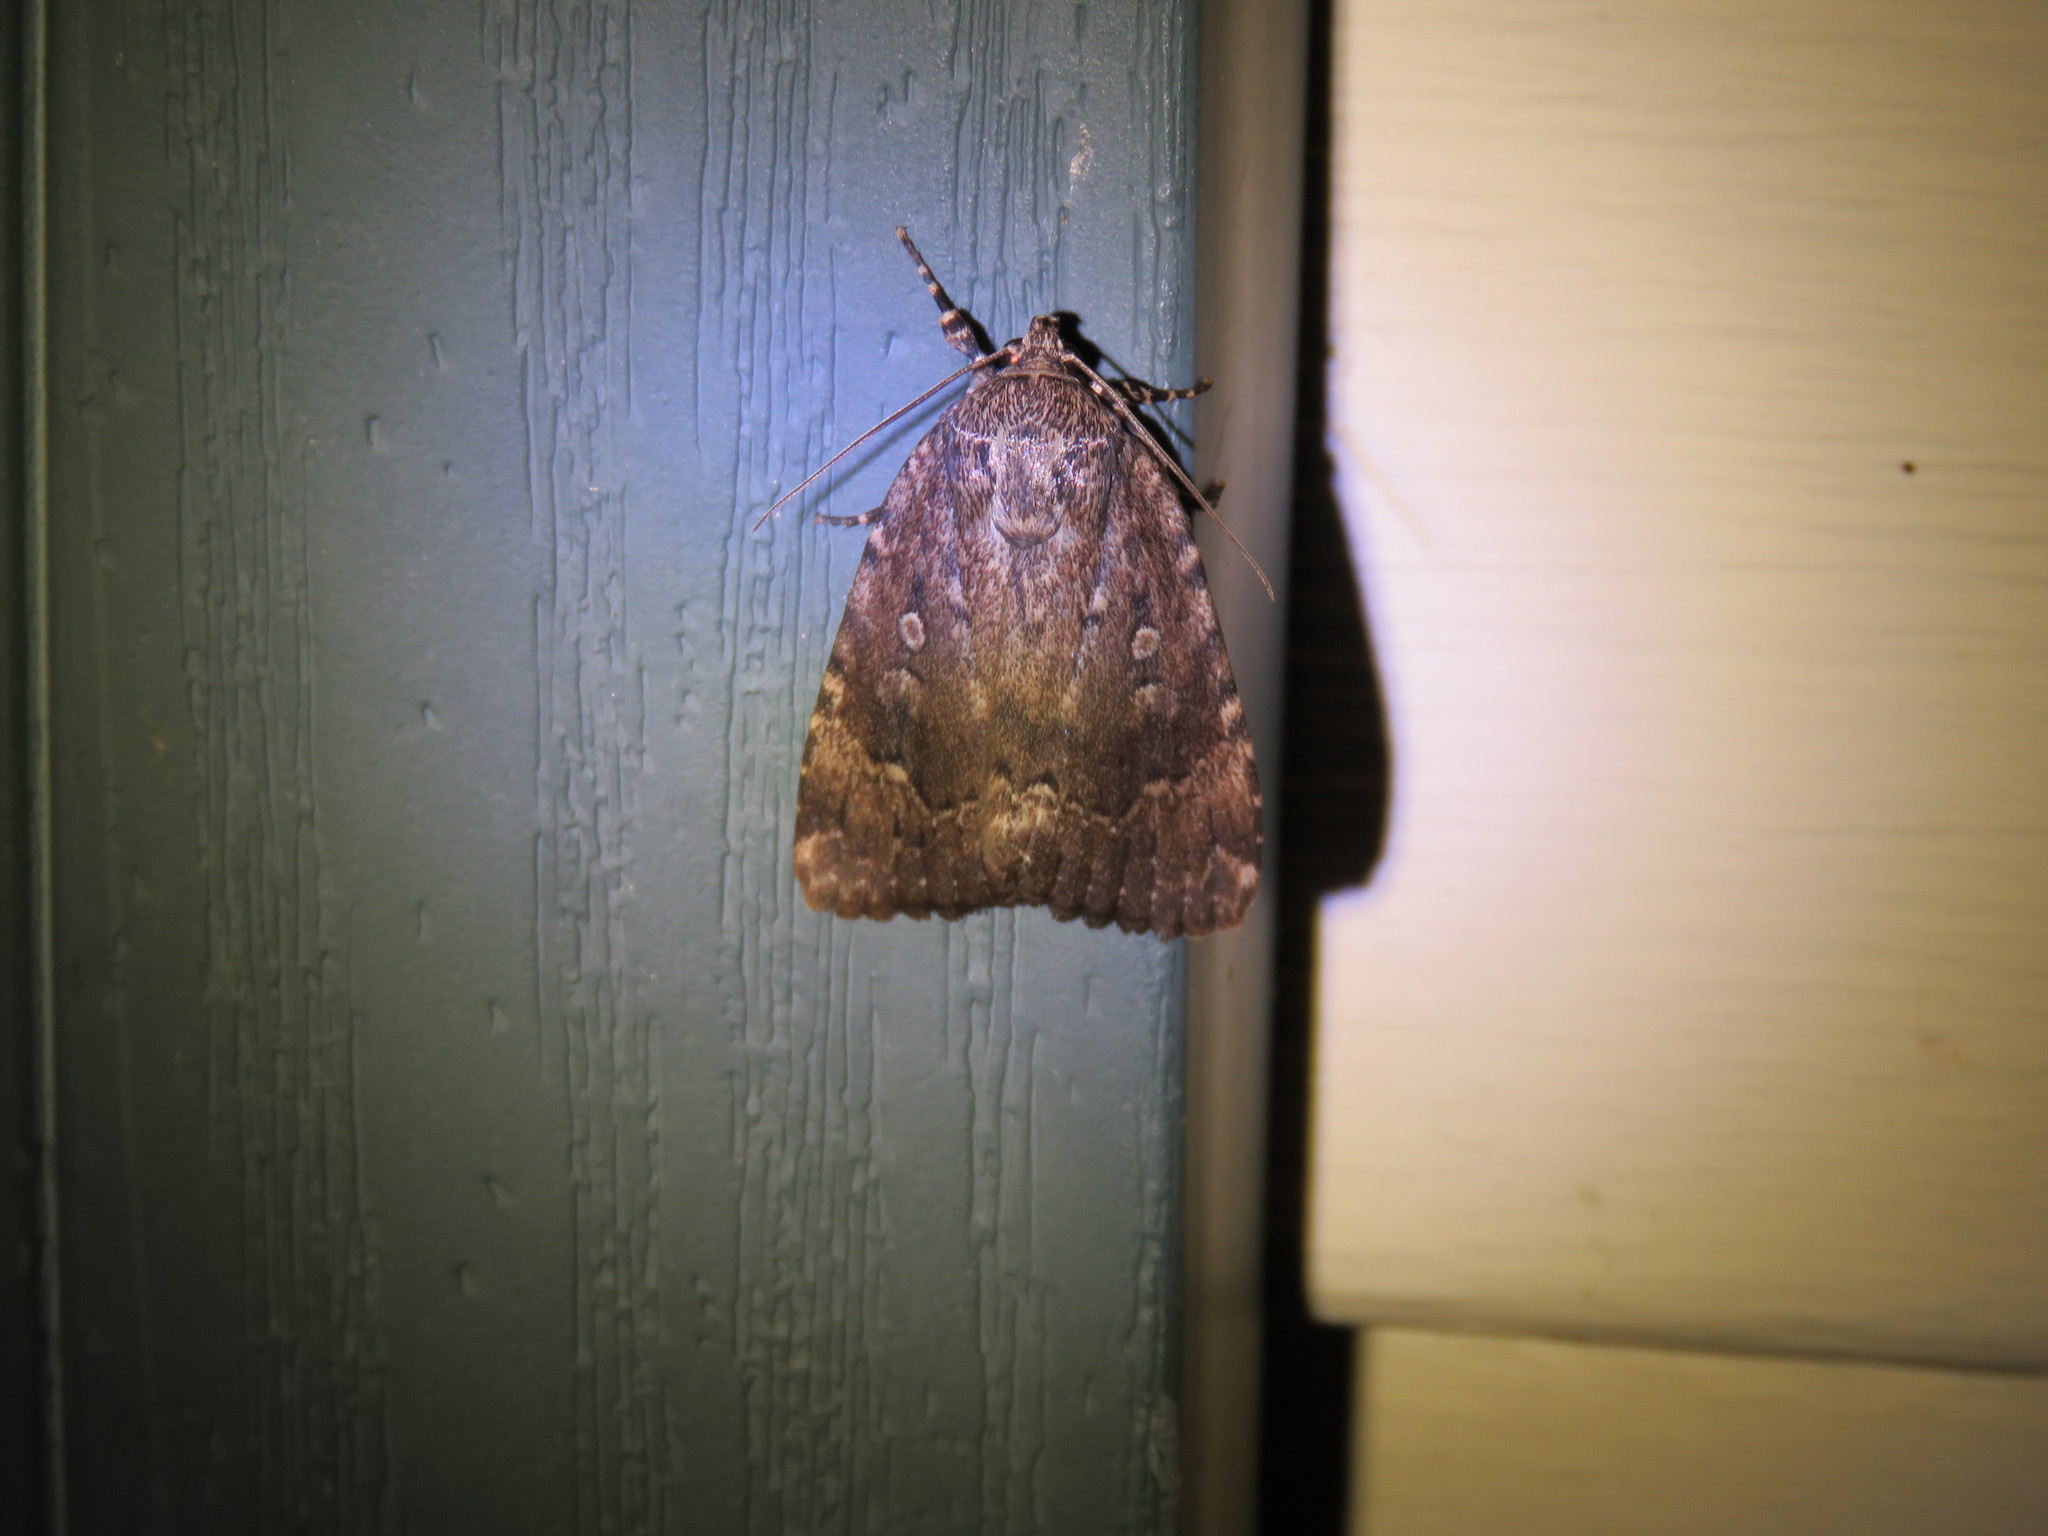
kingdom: Animalia
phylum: Arthropoda
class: Insecta
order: Lepidoptera
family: Noctuidae
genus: Amphipyra
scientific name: Amphipyra pyramidoides
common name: American copper underwing
